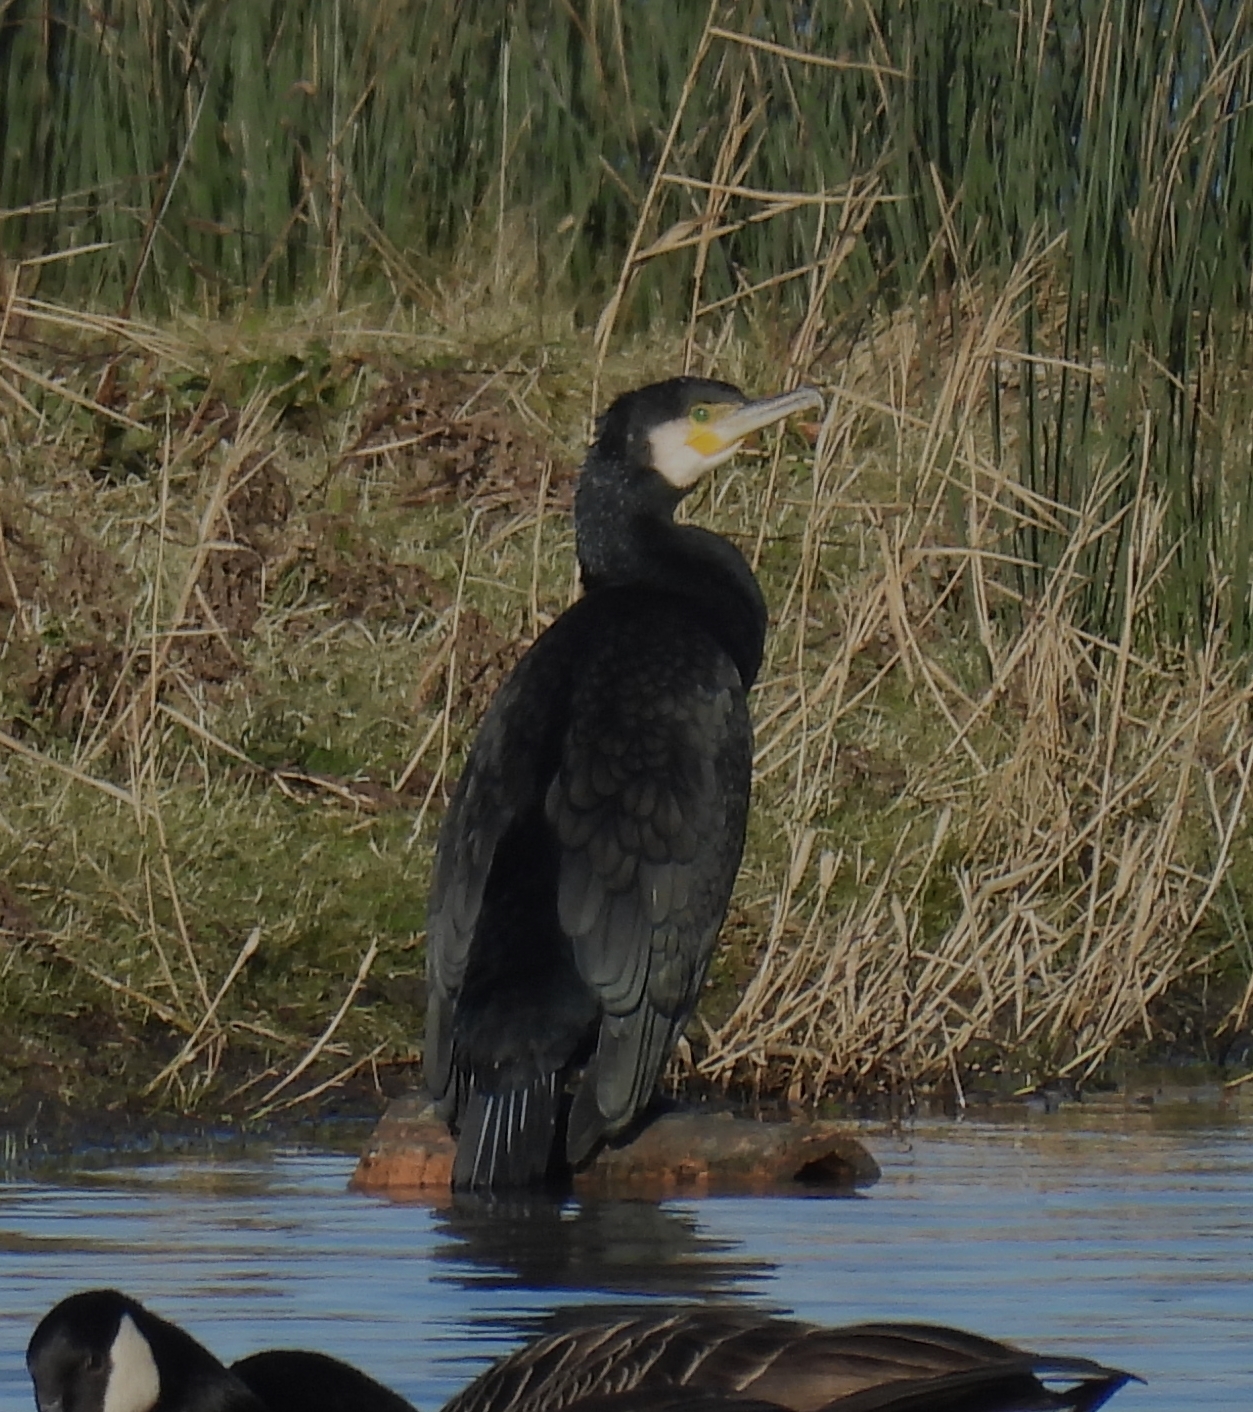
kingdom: Animalia
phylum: Chordata
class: Aves
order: Suliformes
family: Phalacrocoracidae
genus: Phalacrocorax
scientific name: Phalacrocorax carbo
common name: Great cormorant
